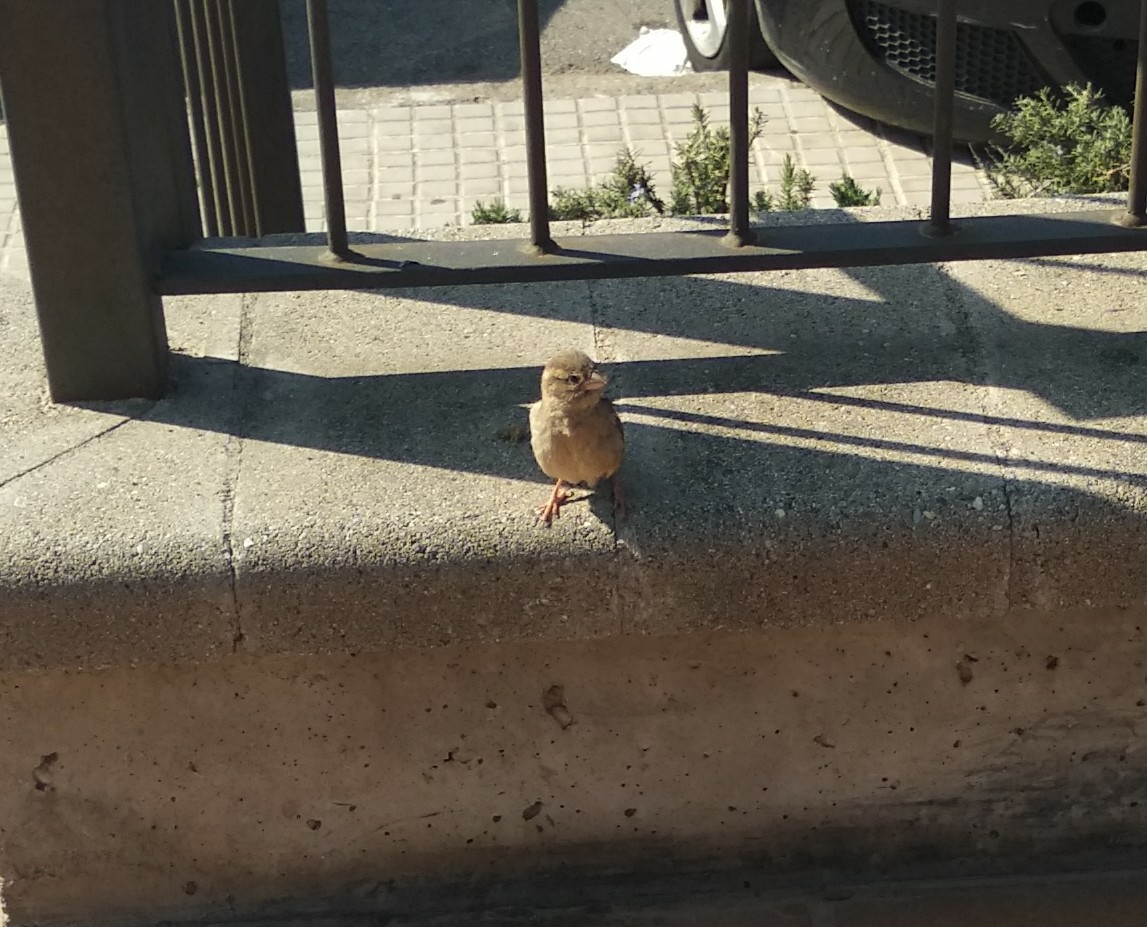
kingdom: Animalia
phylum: Chordata
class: Aves
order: Passeriformes
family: Passeridae
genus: Passer
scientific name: Passer domesticus
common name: House sparrow
